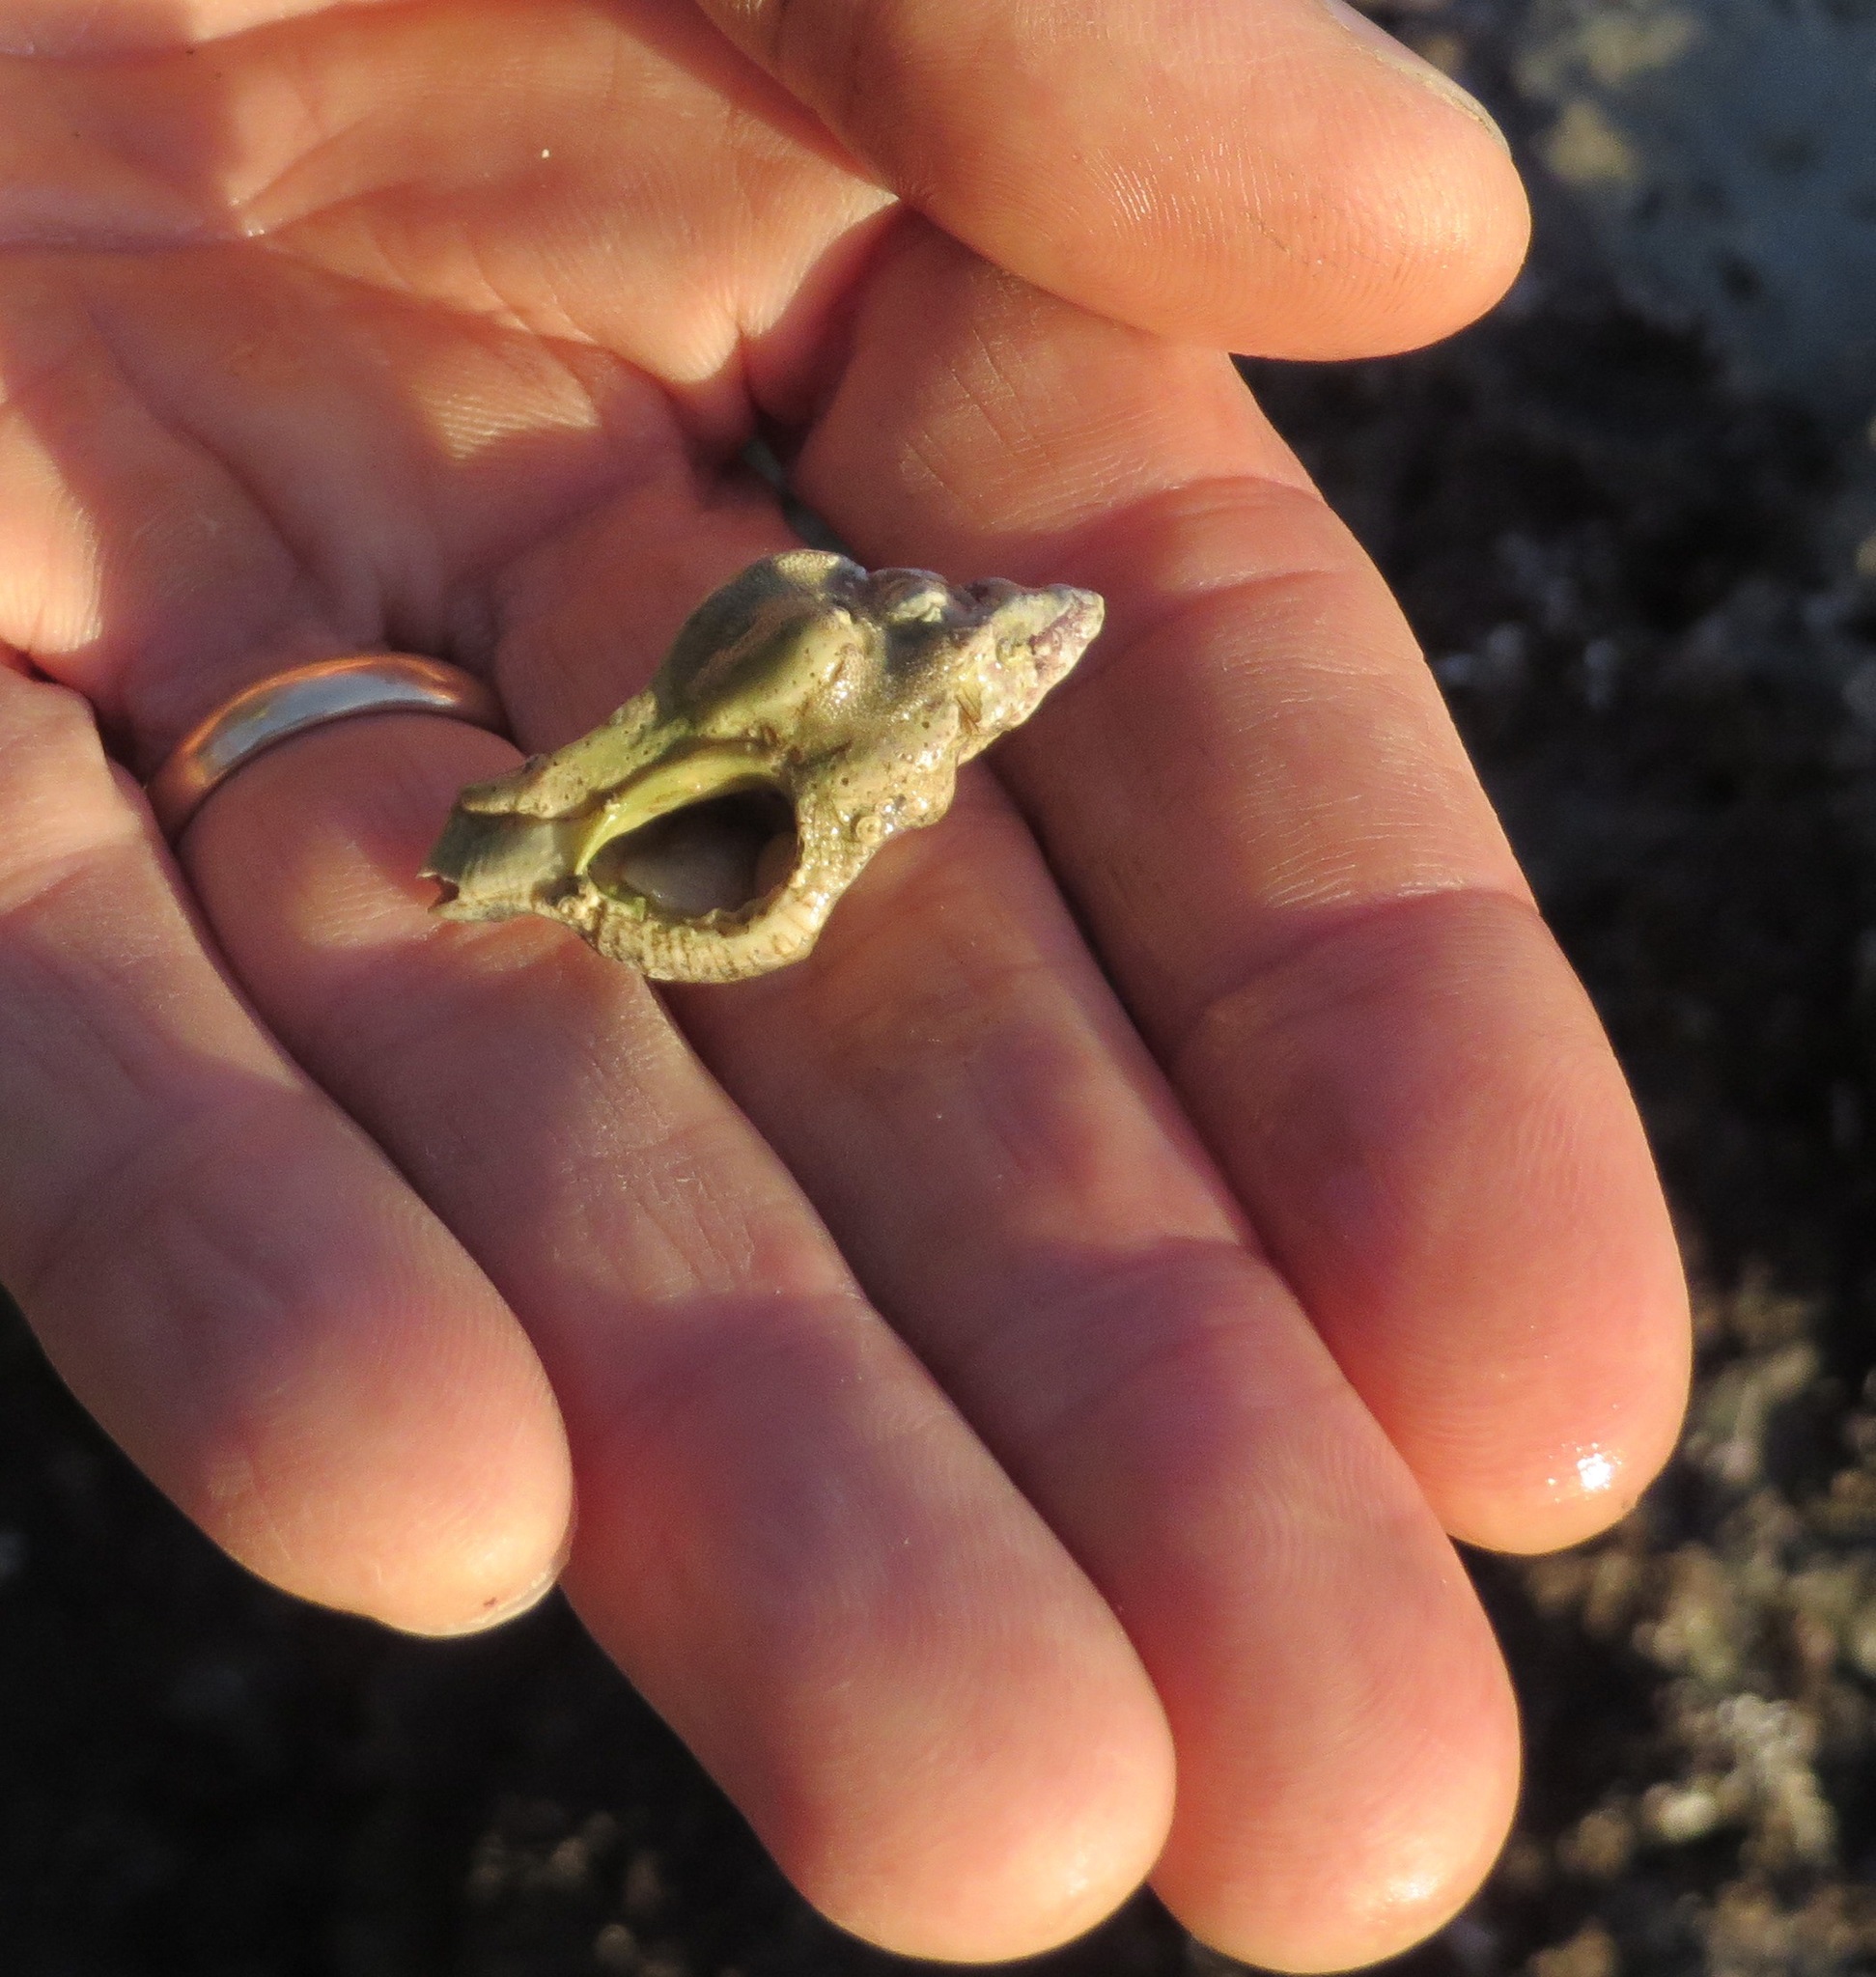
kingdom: Animalia
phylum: Mollusca
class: Gastropoda
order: Neogastropoda
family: Muricidae
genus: Pteropurpura
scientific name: Pteropurpura festiva
